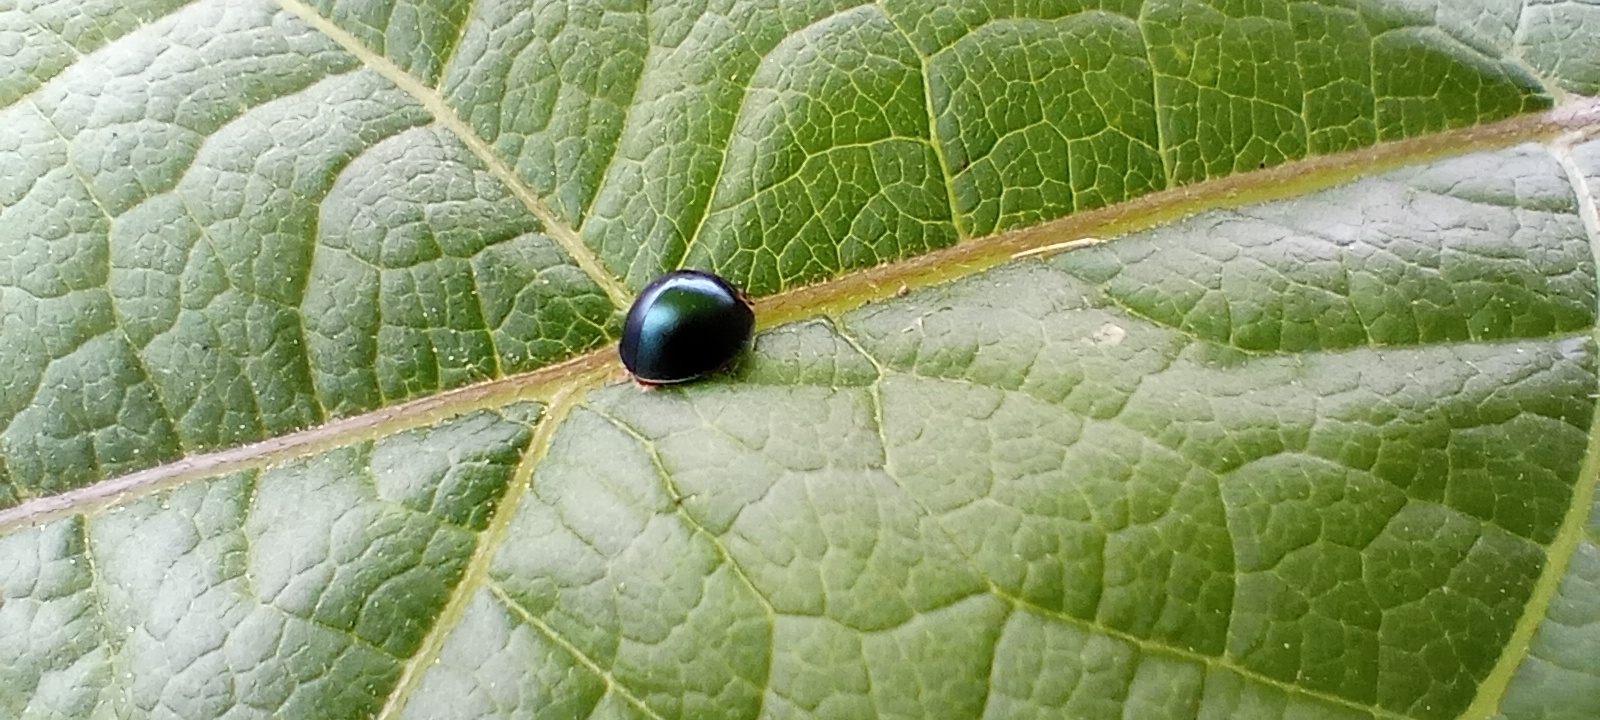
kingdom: Animalia
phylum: Arthropoda
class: Insecta
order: Coleoptera
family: Coccinellidae
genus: Curinus
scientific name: Curinus coeruleus
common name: Ladybird beetle
